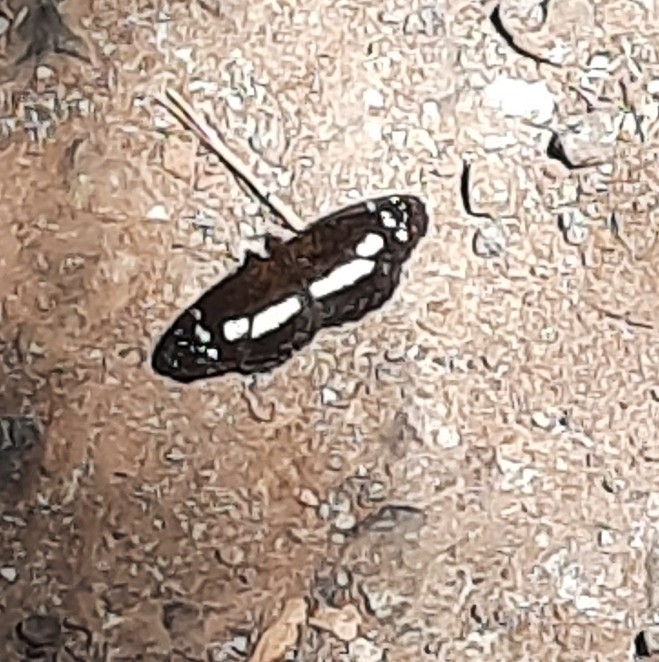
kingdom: Animalia
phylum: Arthropoda
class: Insecta
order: Lepidoptera
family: Nymphalidae
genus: Eresia
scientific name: Eresia clio
